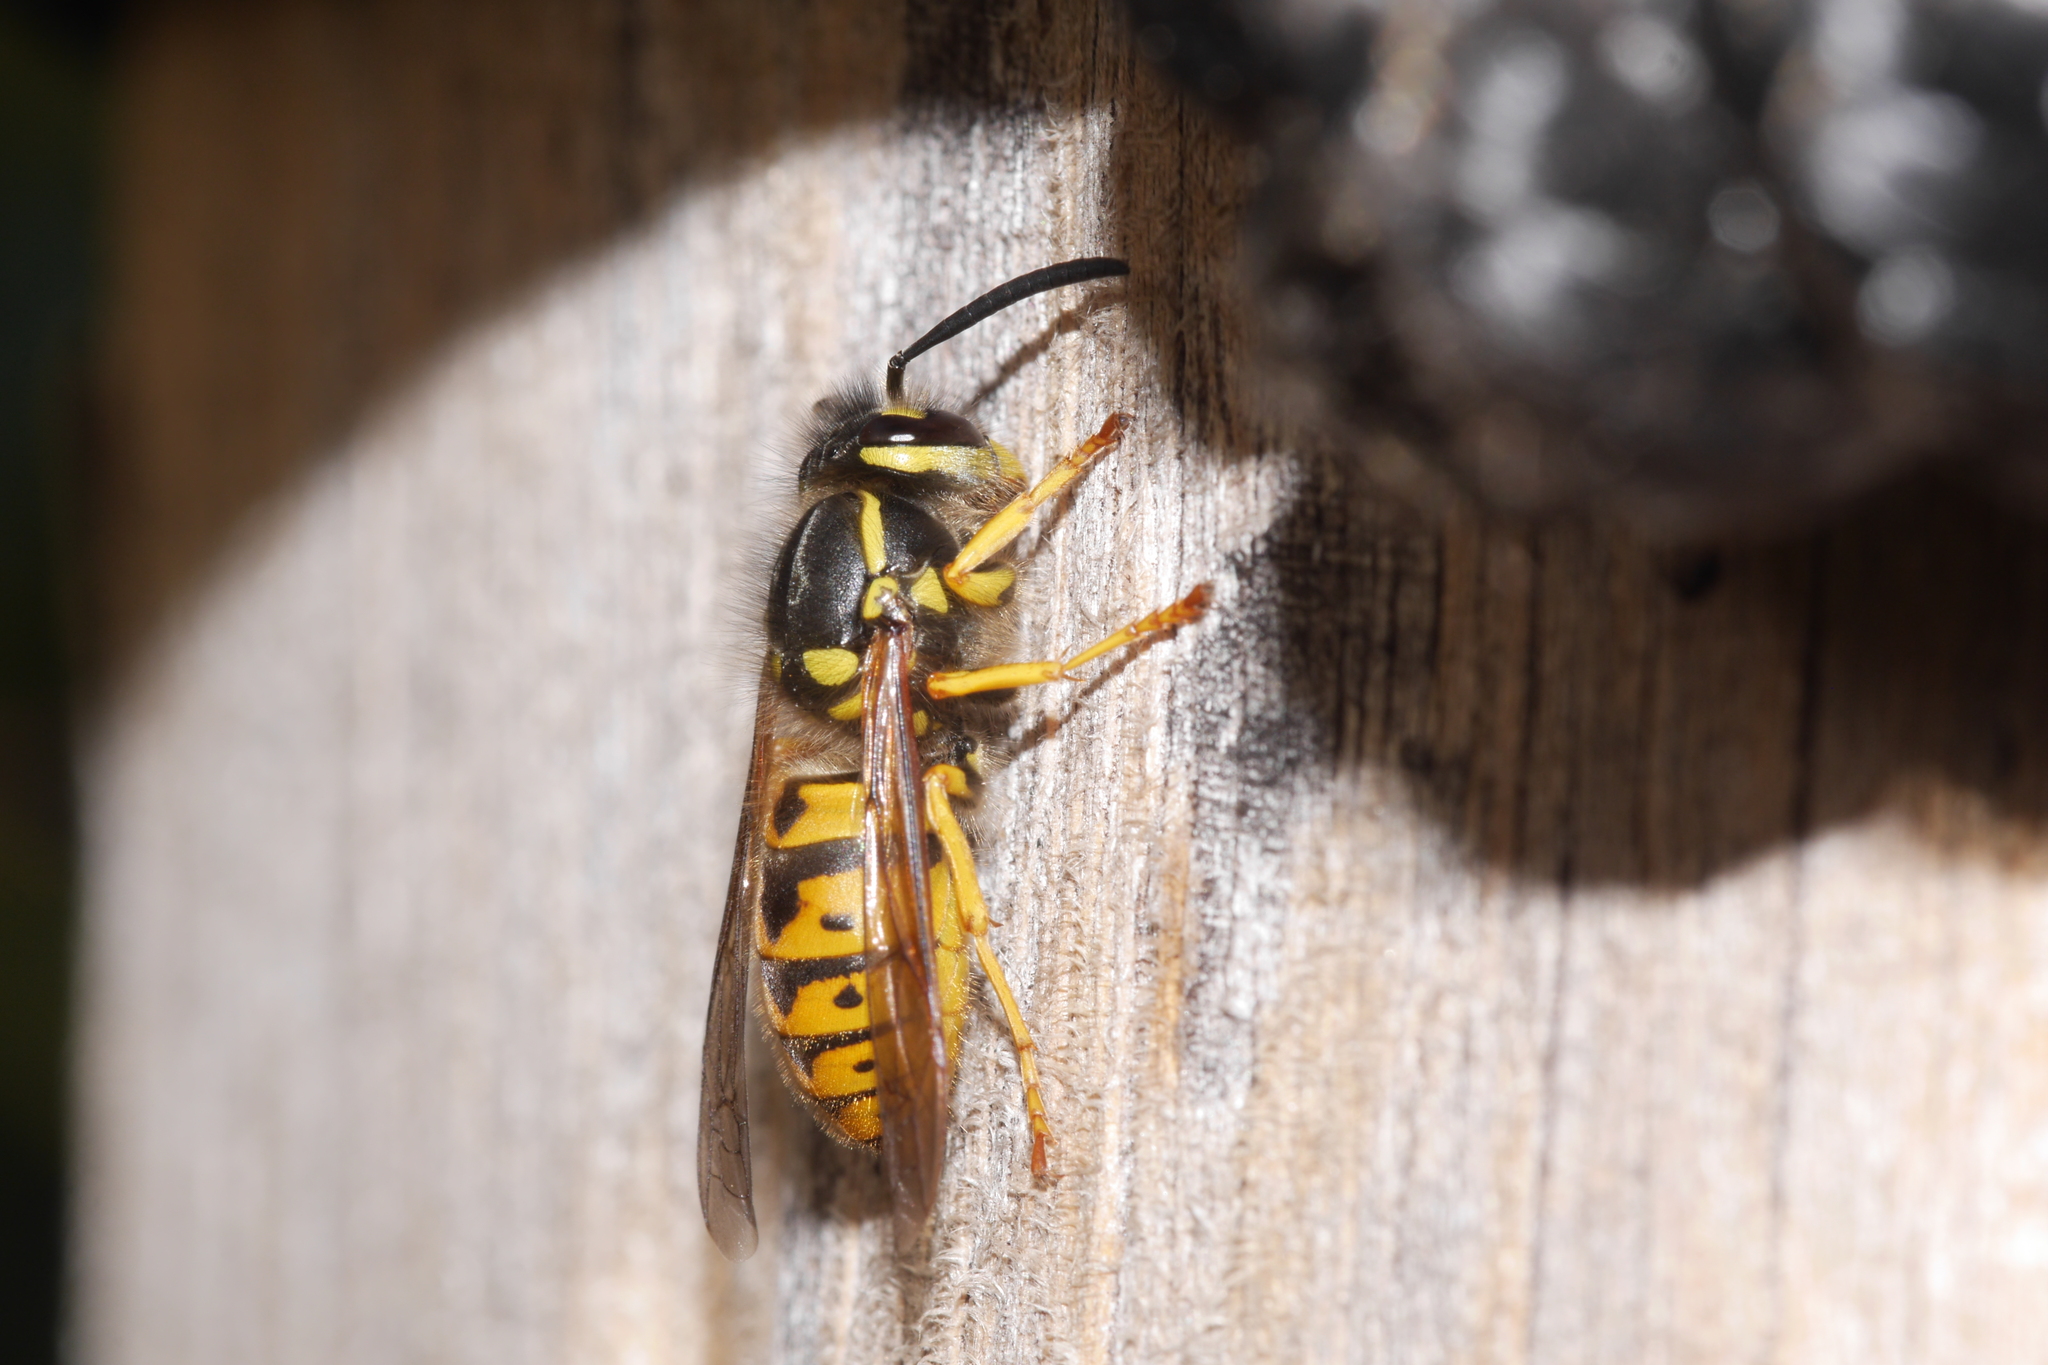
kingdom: Animalia
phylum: Arthropoda
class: Insecta
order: Hymenoptera
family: Vespidae
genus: Vespula
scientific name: Vespula germanica
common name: German wasp
